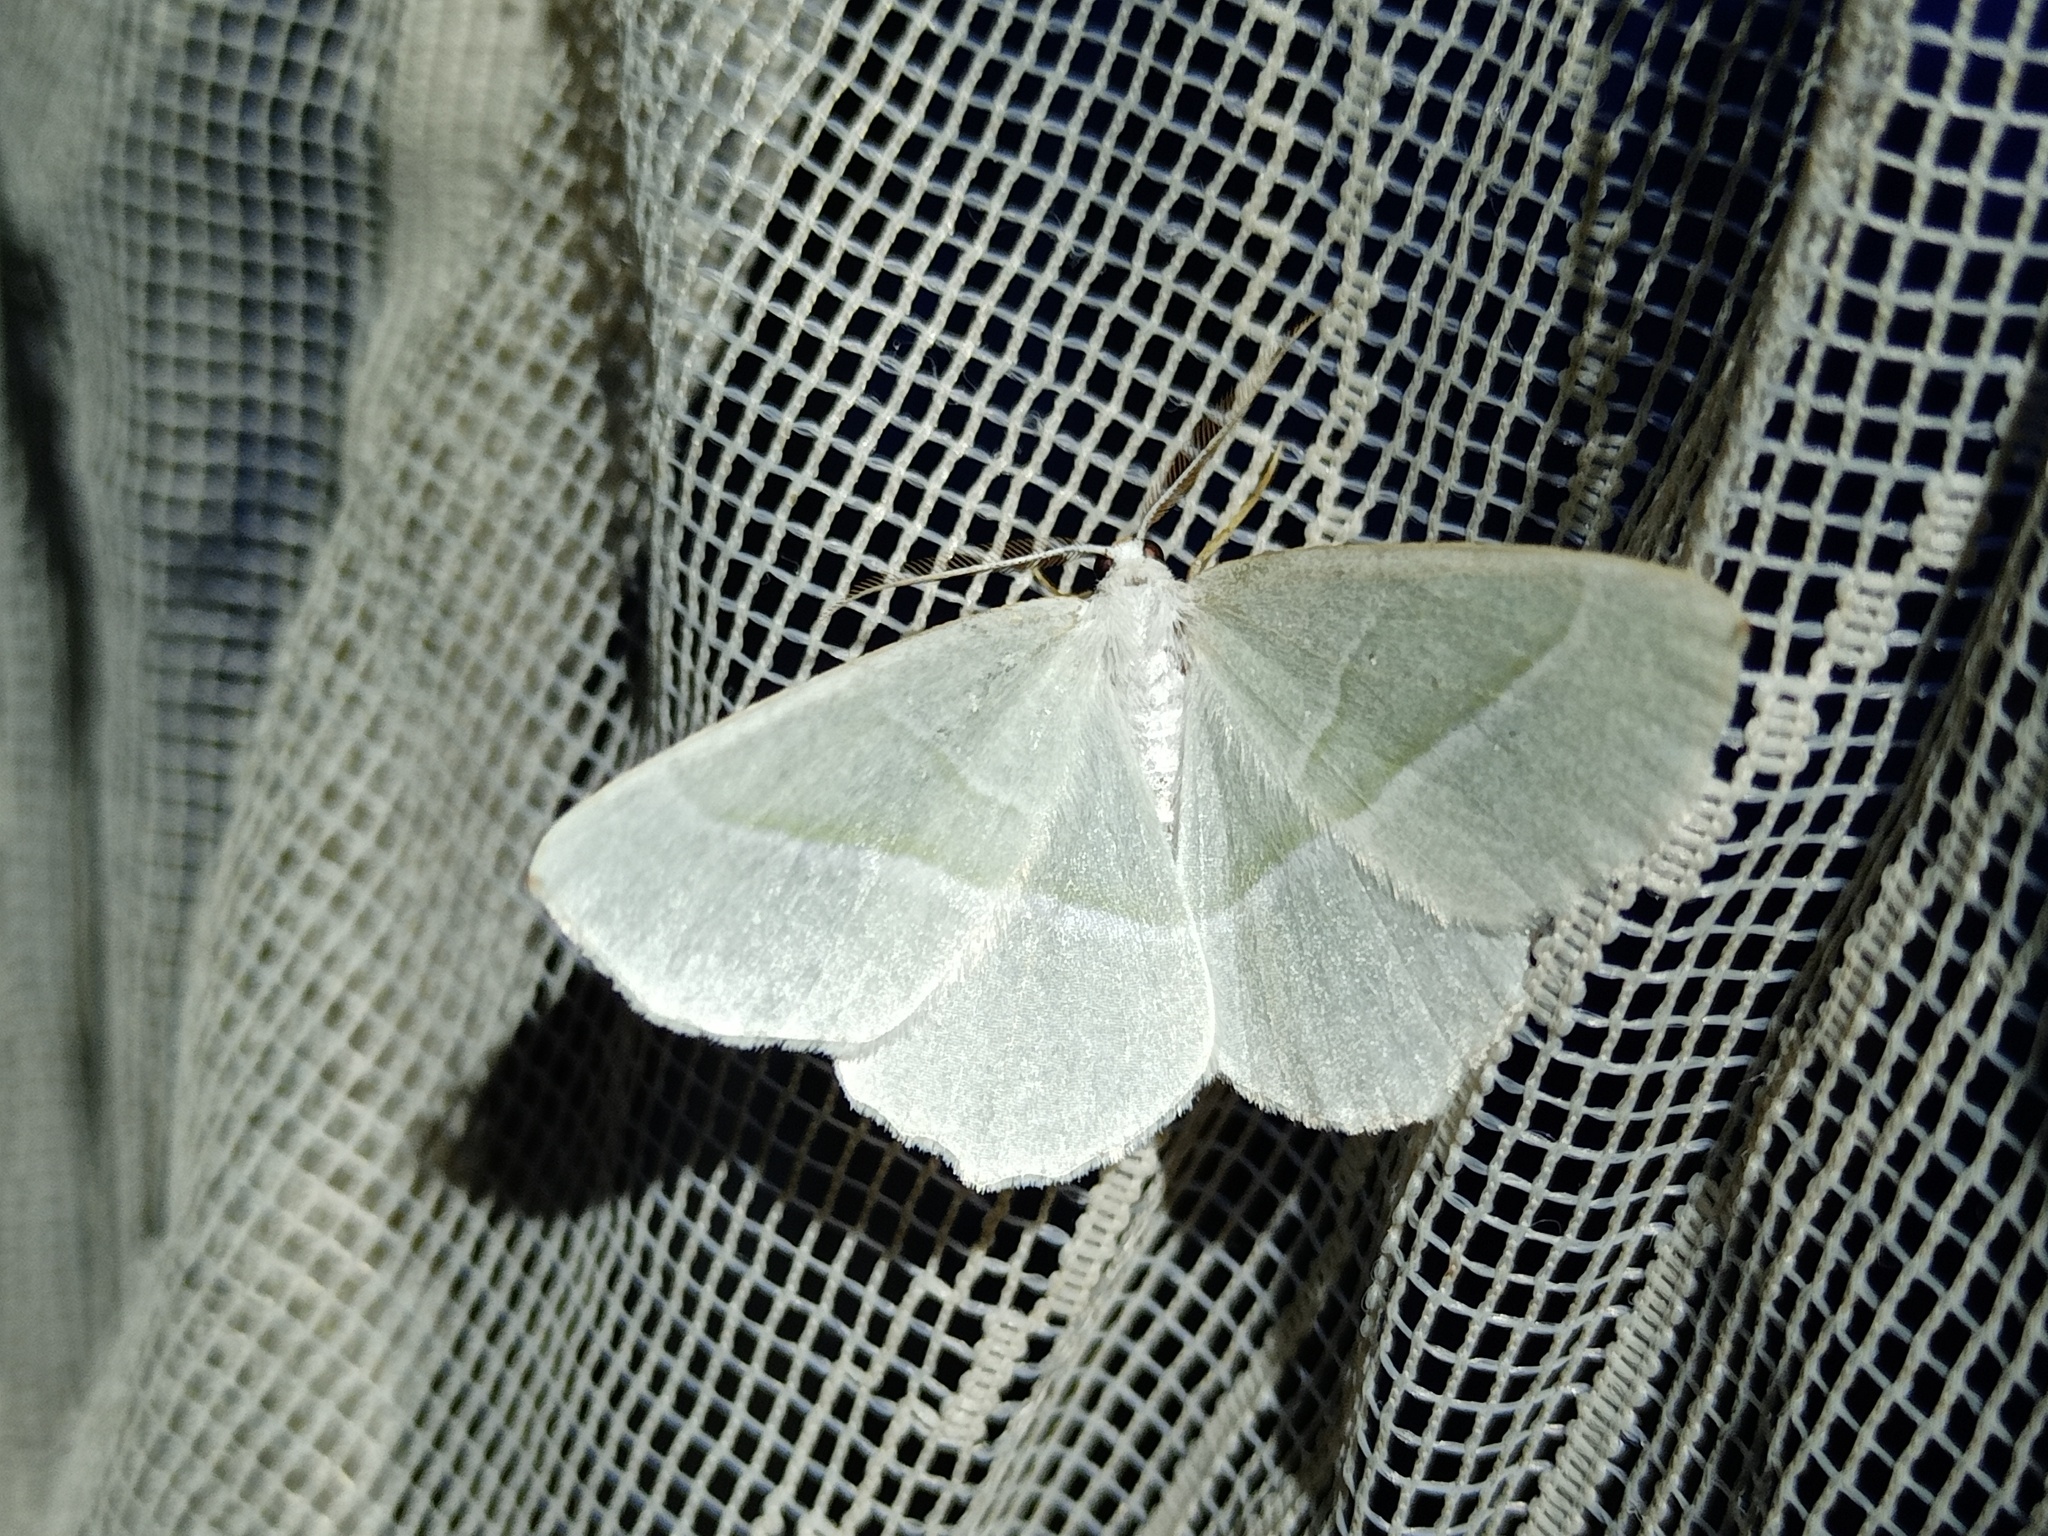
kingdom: Animalia
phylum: Arthropoda
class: Insecta
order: Lepidoptera
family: Geometridae
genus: Campaea
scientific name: Campaea margaritaria
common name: Light emerald
